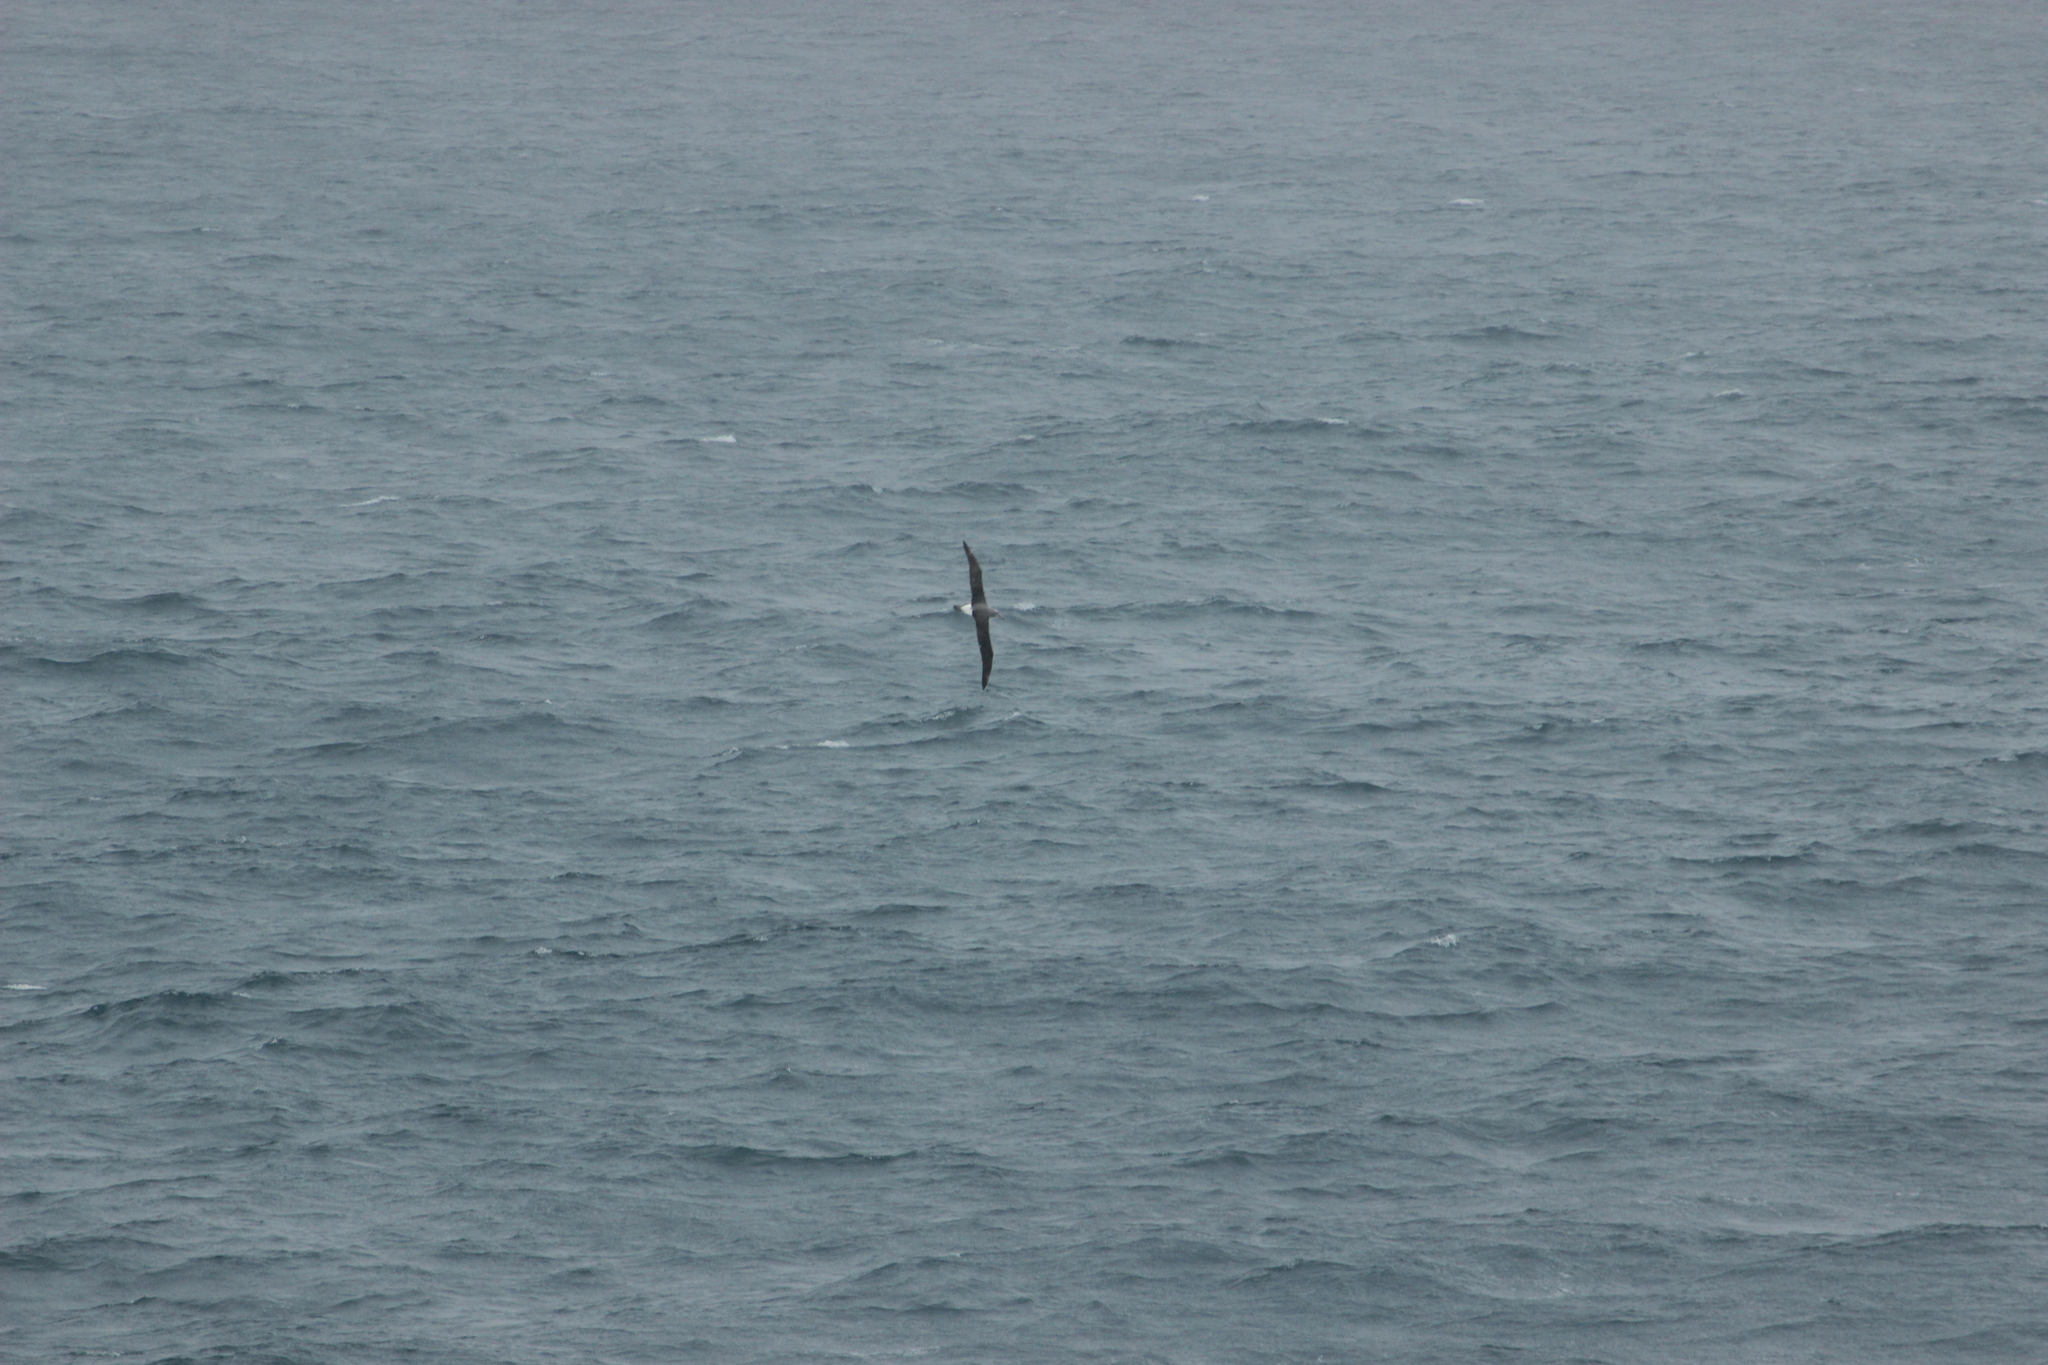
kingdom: Animalia
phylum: Chordata
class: Aves
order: Procellariiformes
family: Diomedeidae
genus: Thalassarche
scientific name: Thalassarche salvini
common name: Salvin's albatross
